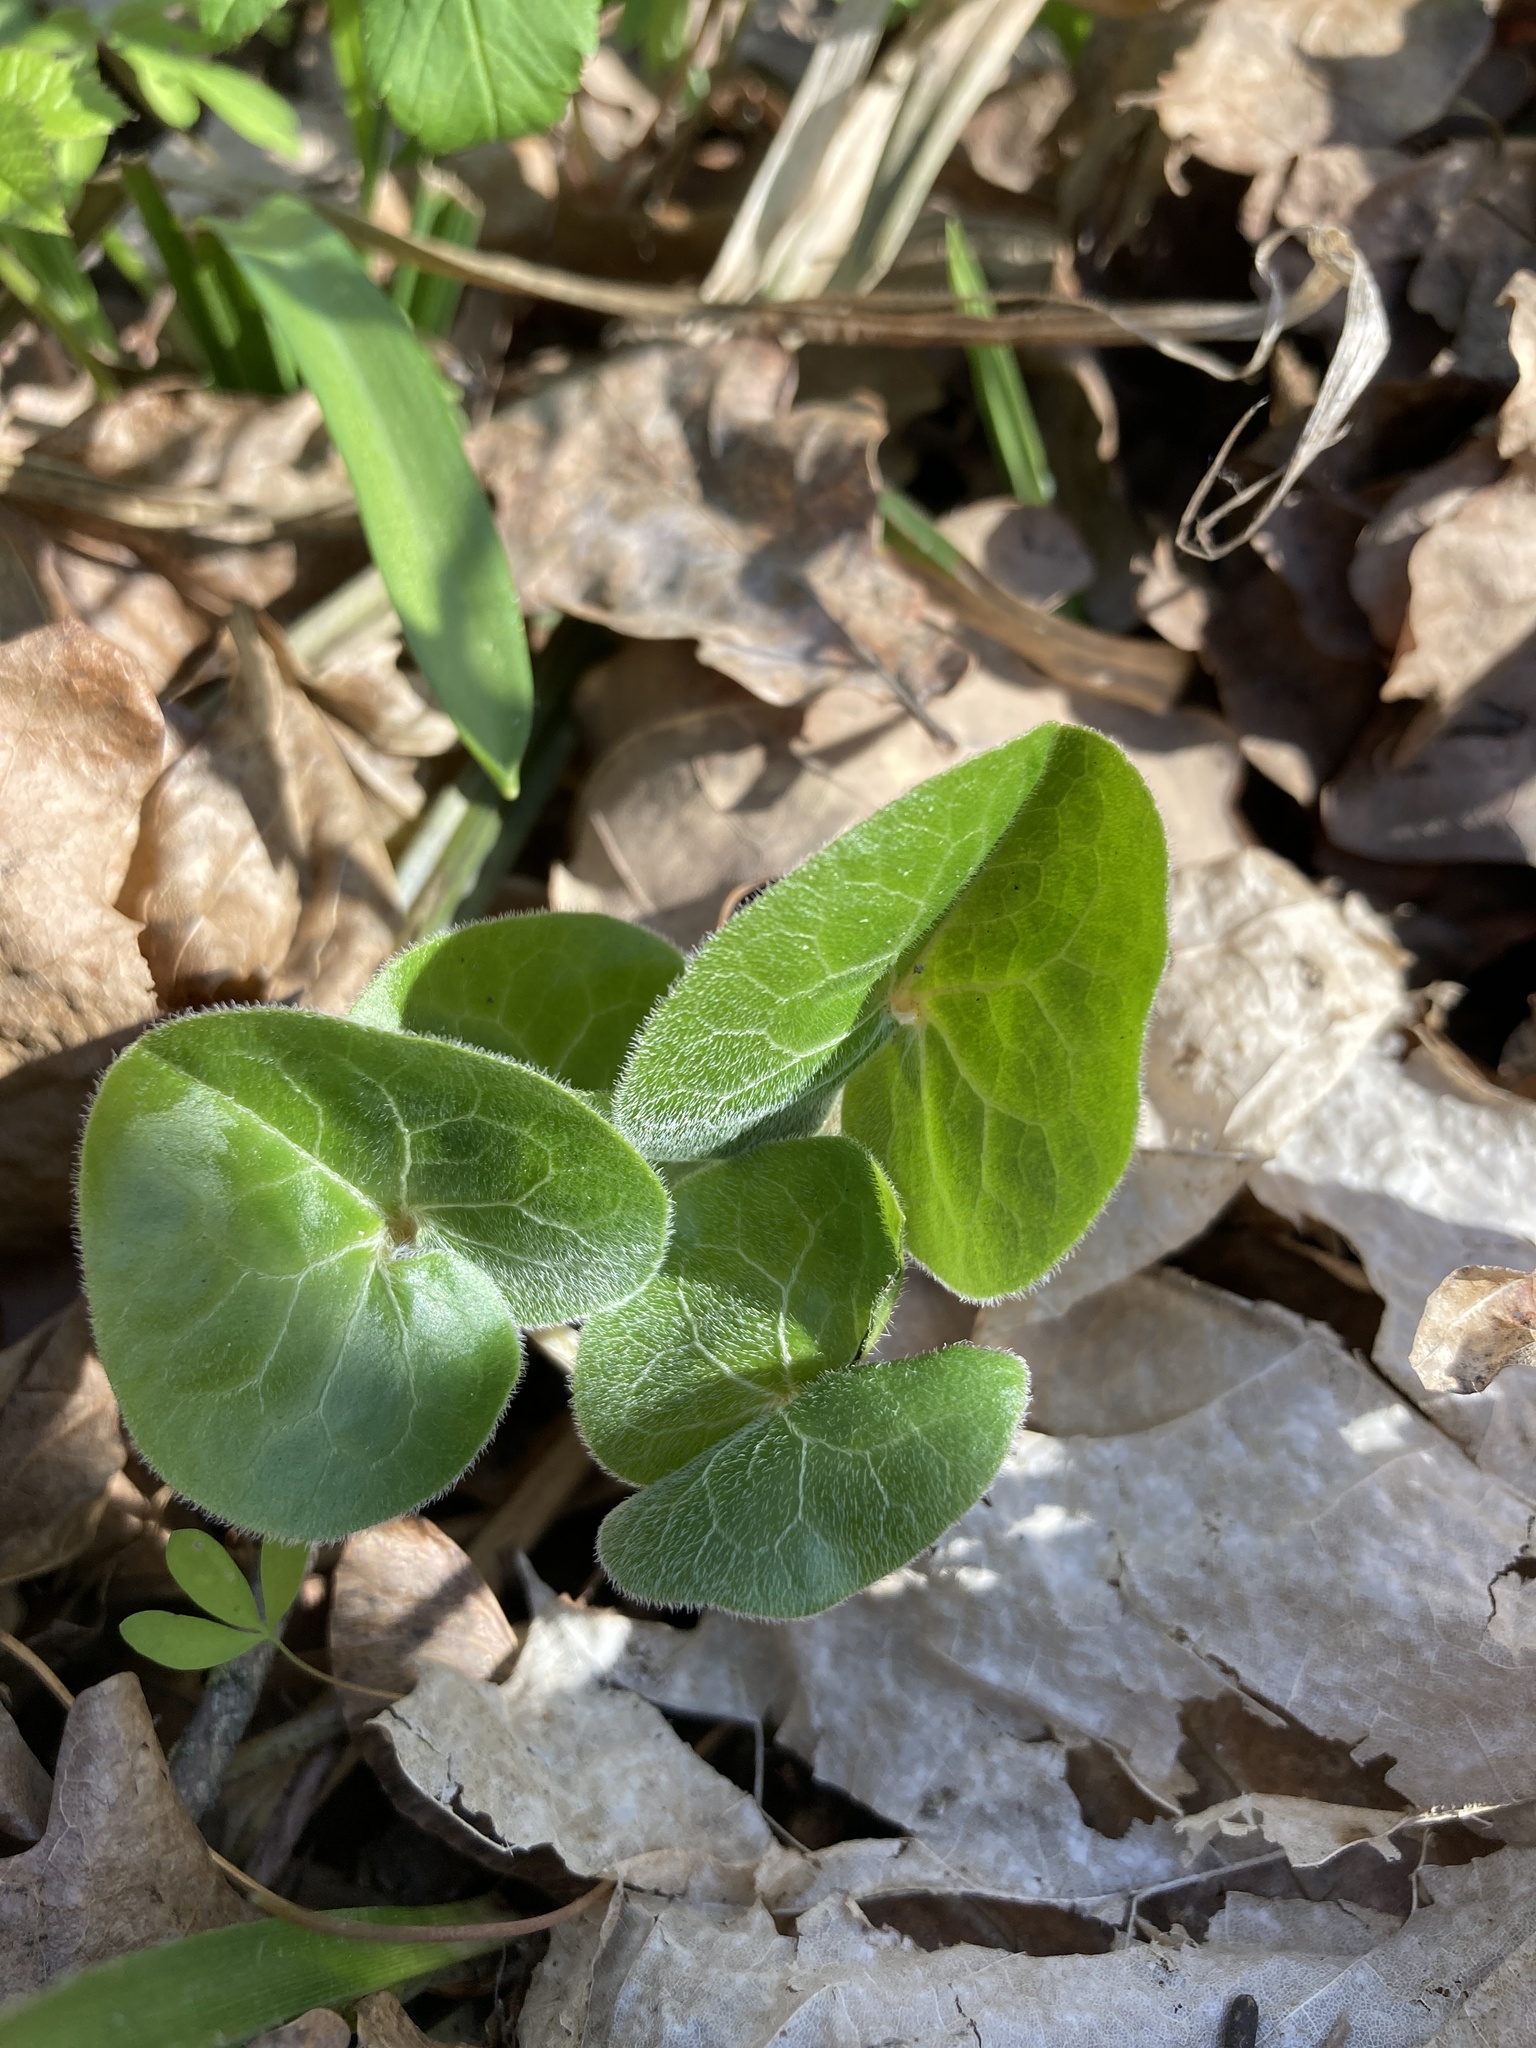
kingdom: Plantae
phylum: Tracheophyta
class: Magnoliopsida
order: Piperales
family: Aristolochiaceae
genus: Asarum
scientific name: Asarum europaeum
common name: Asarabacca
